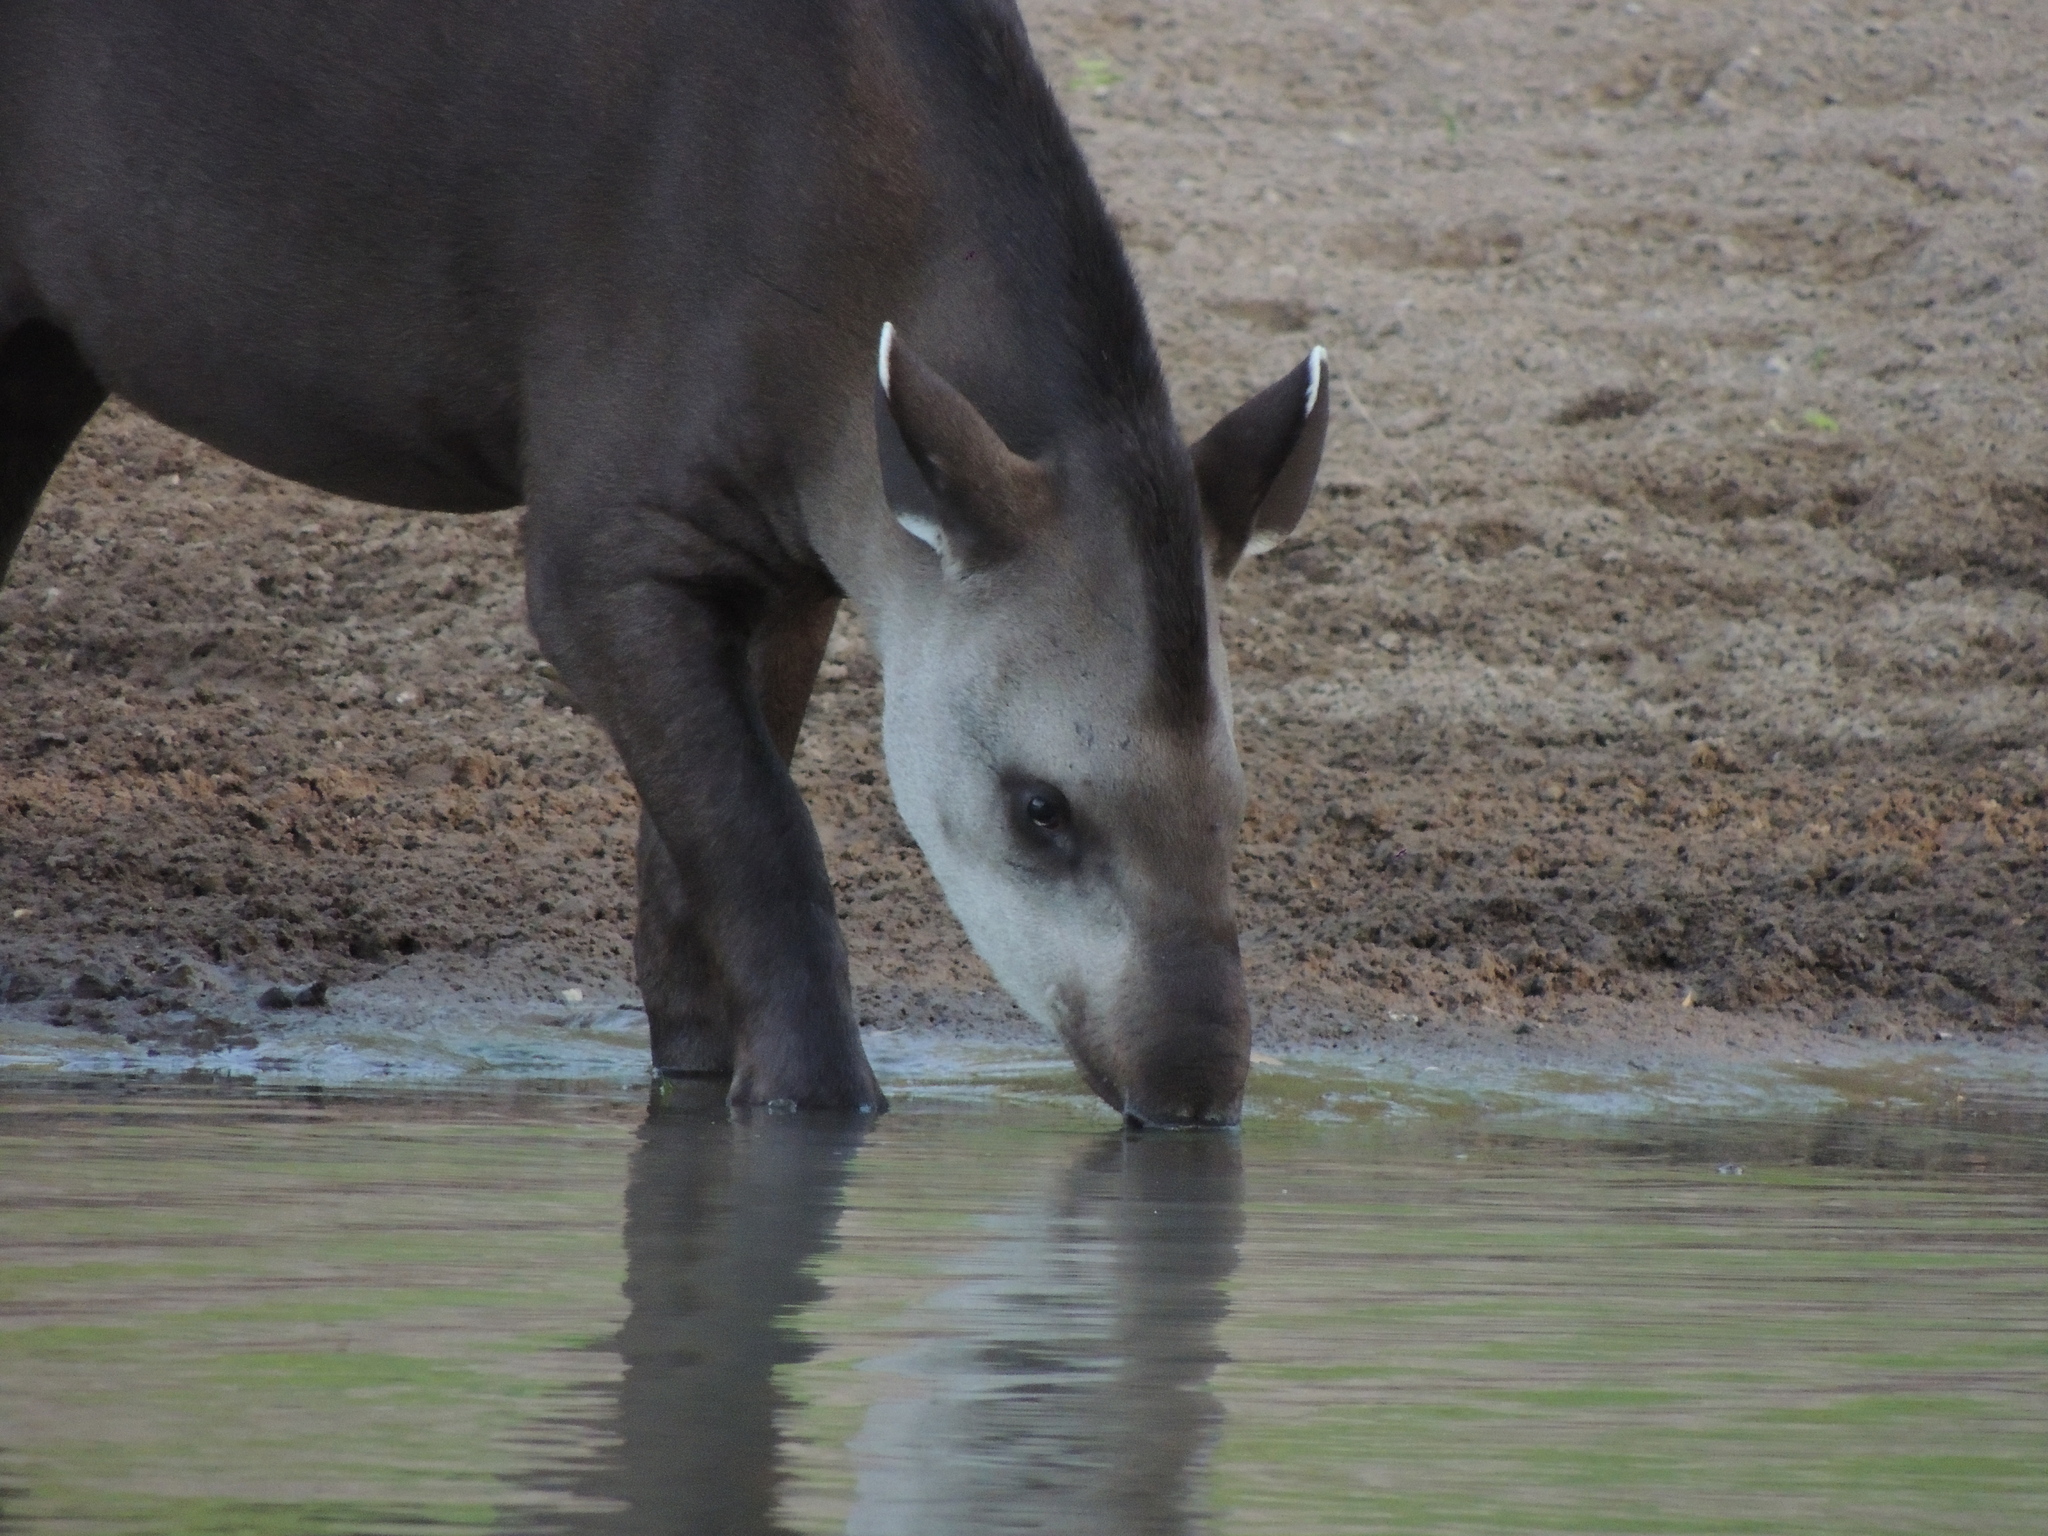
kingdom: Animalia
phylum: Chordata
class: Mammalia
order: Perissodactyla
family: Tapiridae
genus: Tapirus
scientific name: Tapirus terrestris
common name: Brazilian tapir
